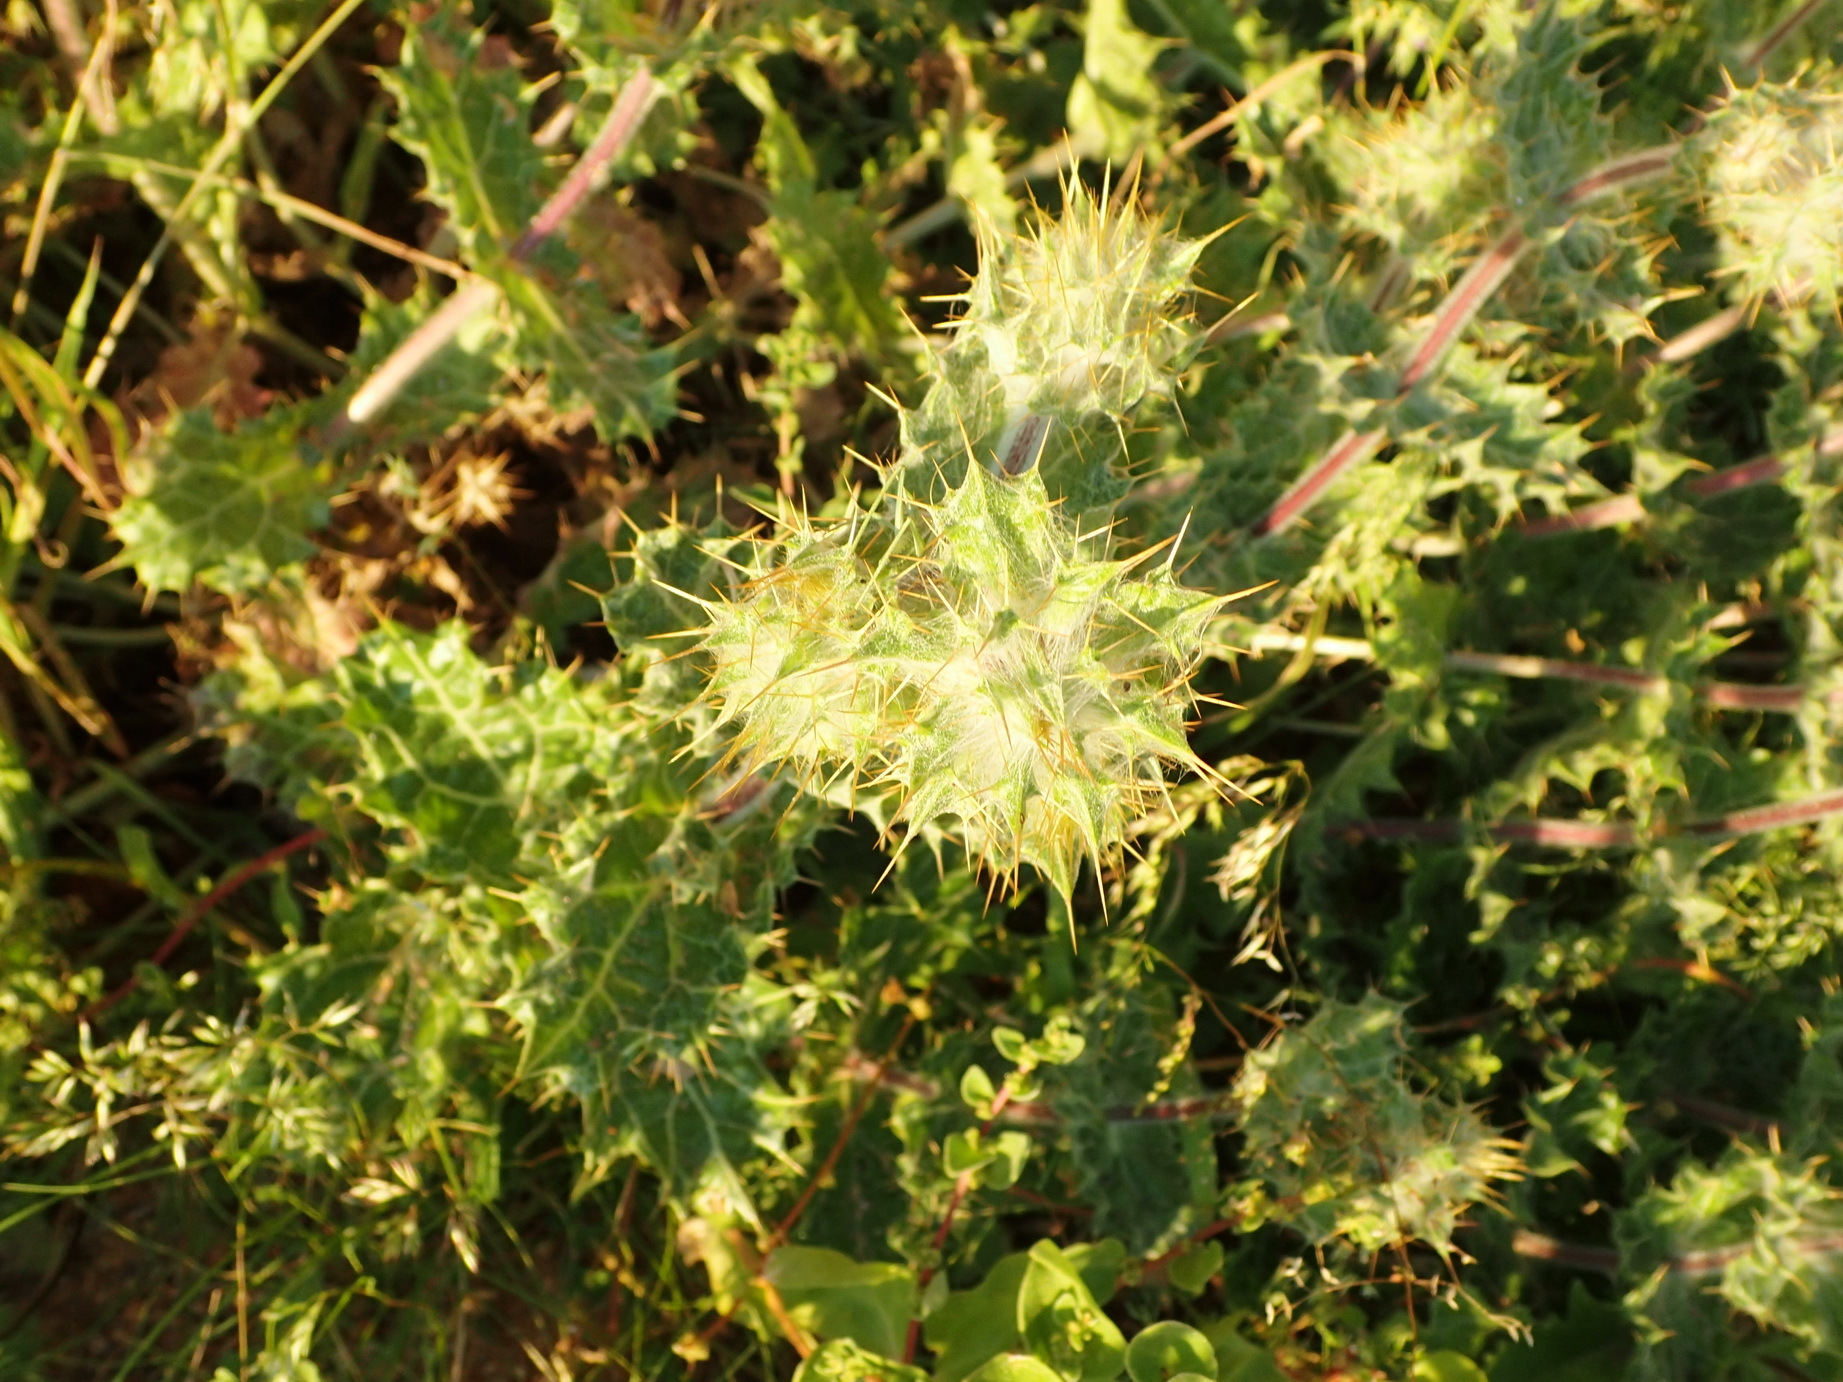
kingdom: Plantae
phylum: Tracheophyta
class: Magnoliopsida
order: Asterales
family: Asteraceae
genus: Berkheya
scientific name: Berkheya spinosissima
